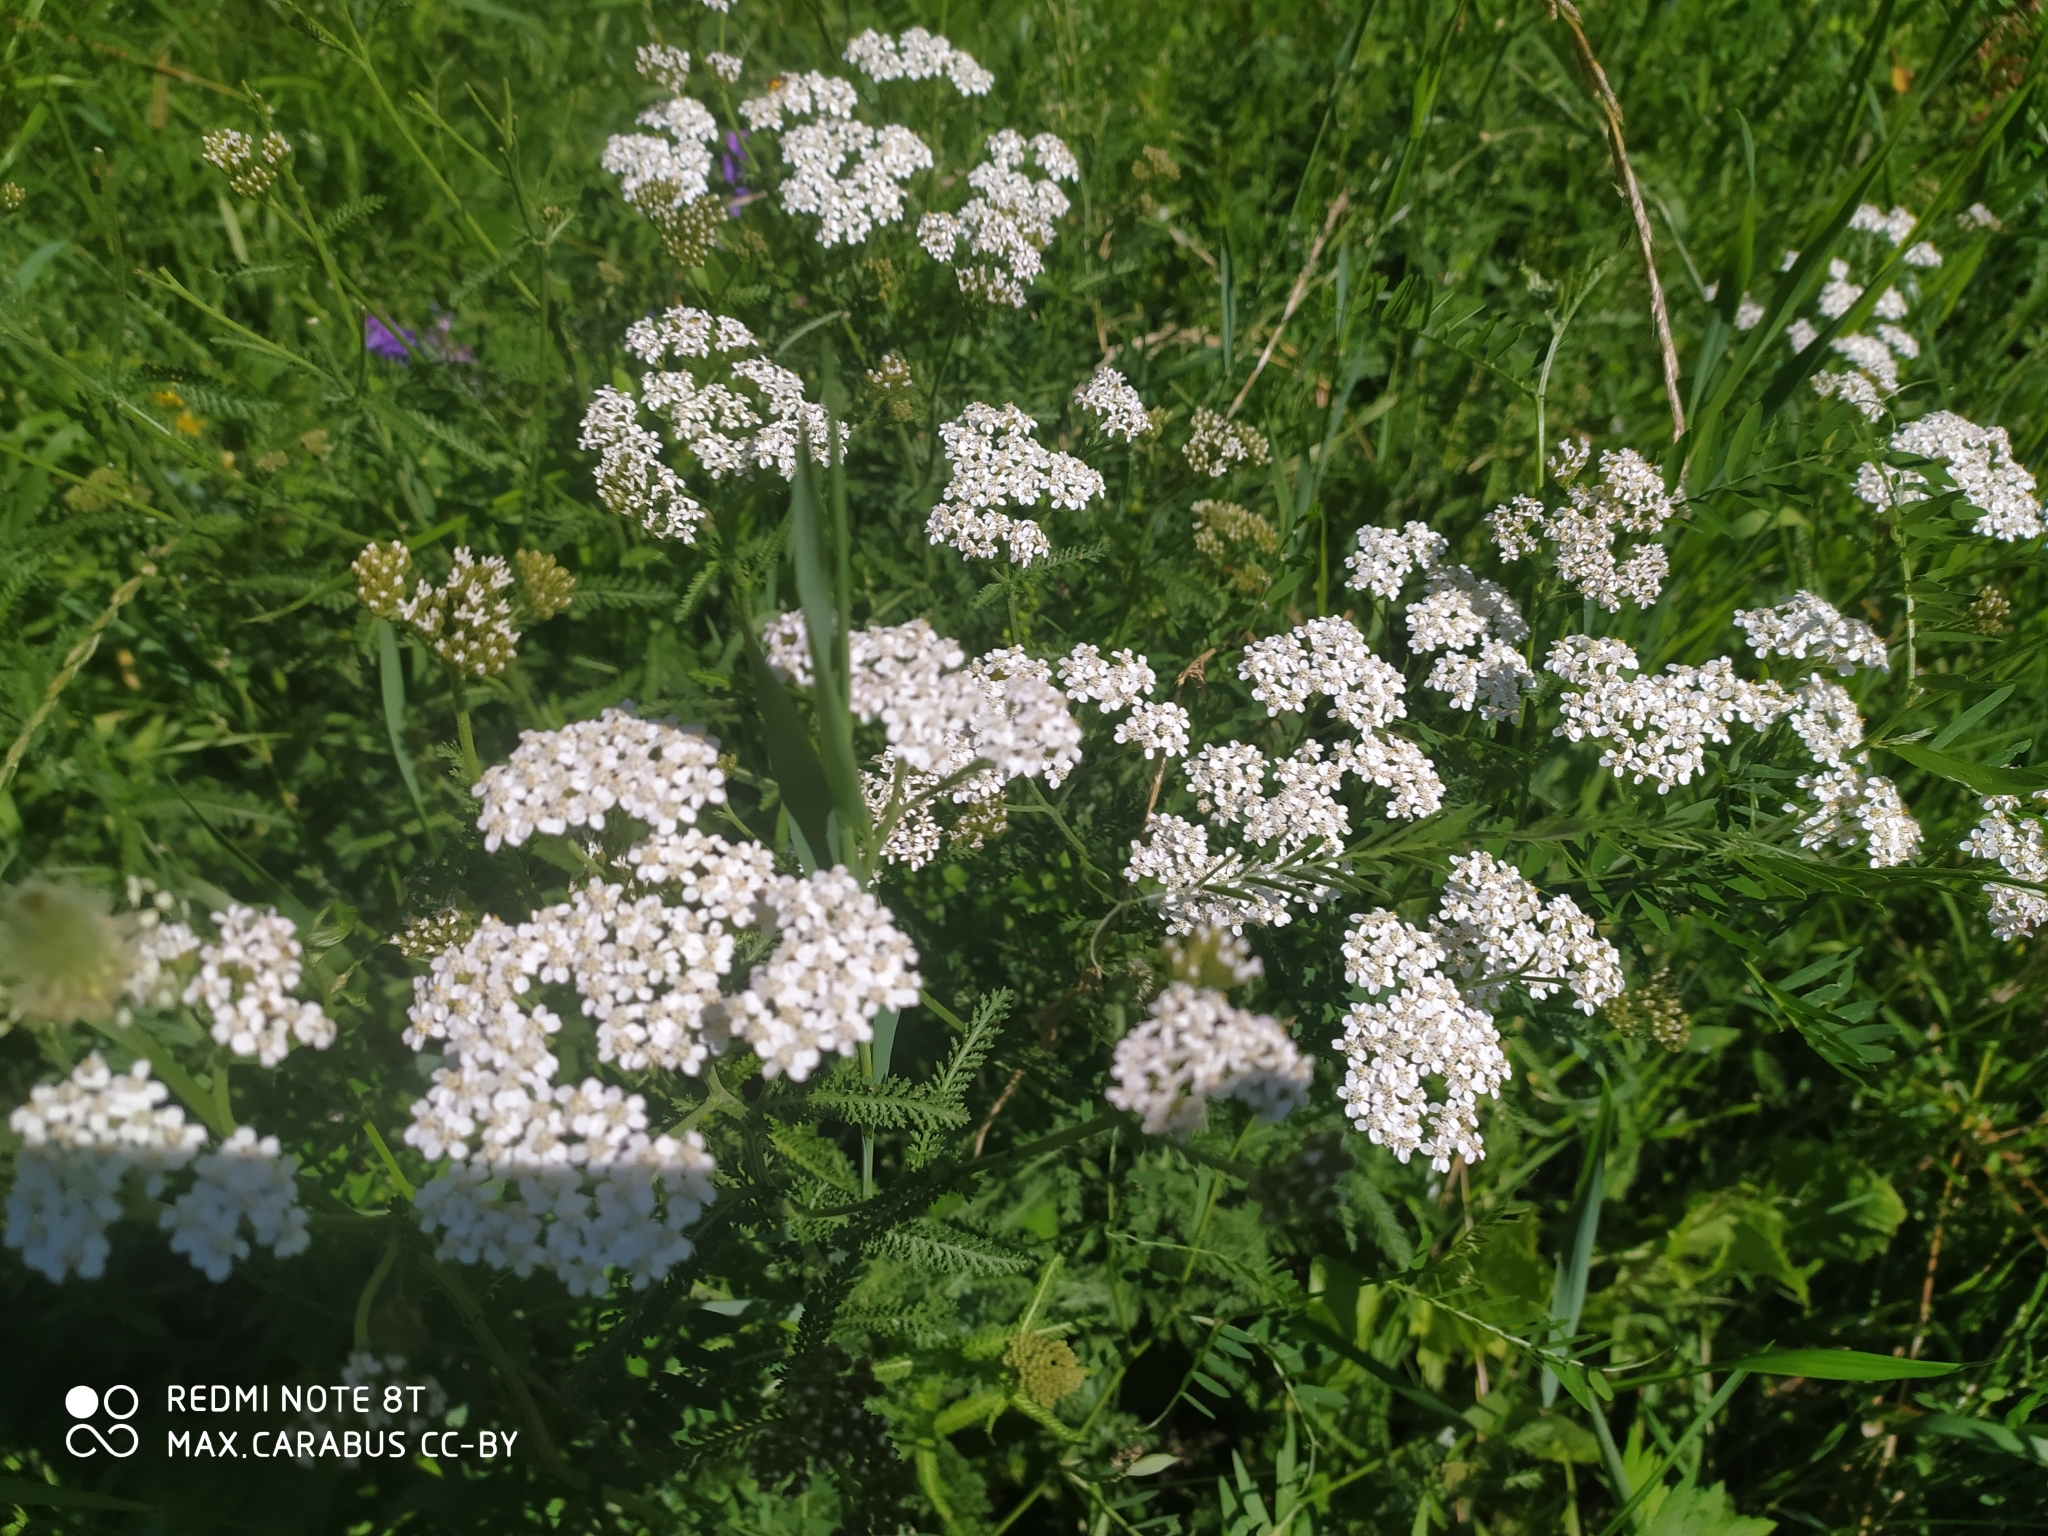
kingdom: Plantae
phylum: Tracheophyta
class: Magnoliopsida
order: Asterales
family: Asteraceae
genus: Achillea
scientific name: Achillea millefolium
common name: Yarrow
